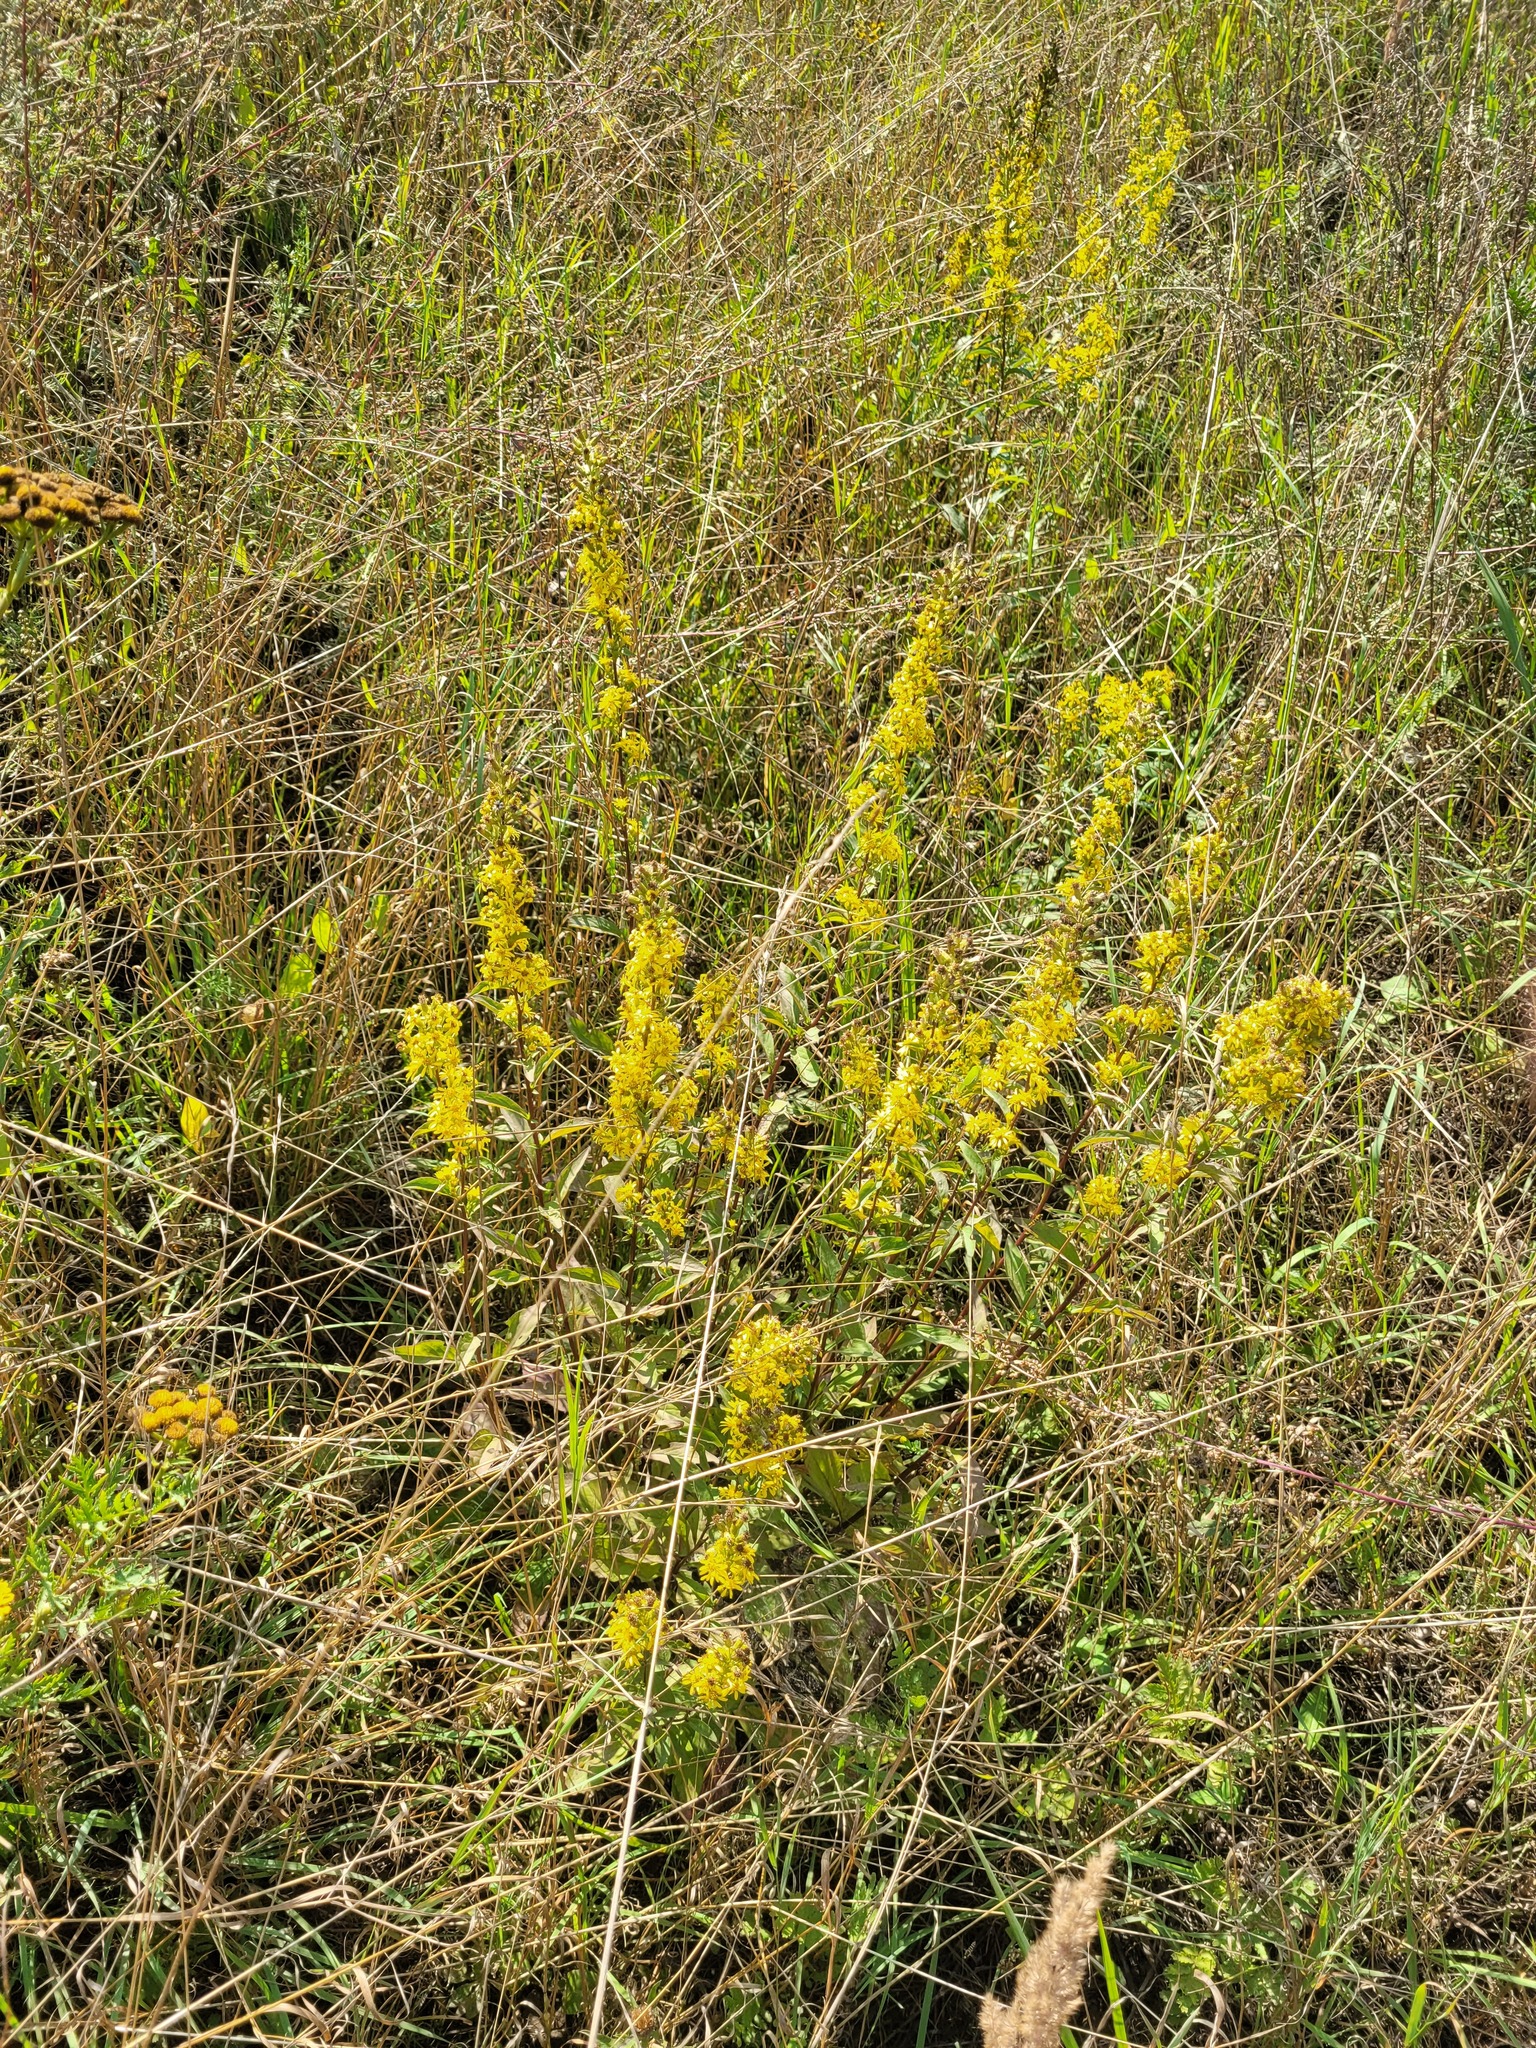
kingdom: Plantae
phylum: Tracheophyta
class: Magnoliopsida
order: Asterales
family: Asteraceae
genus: Solidago
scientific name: Solidago virgaurea
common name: Goldenrod
